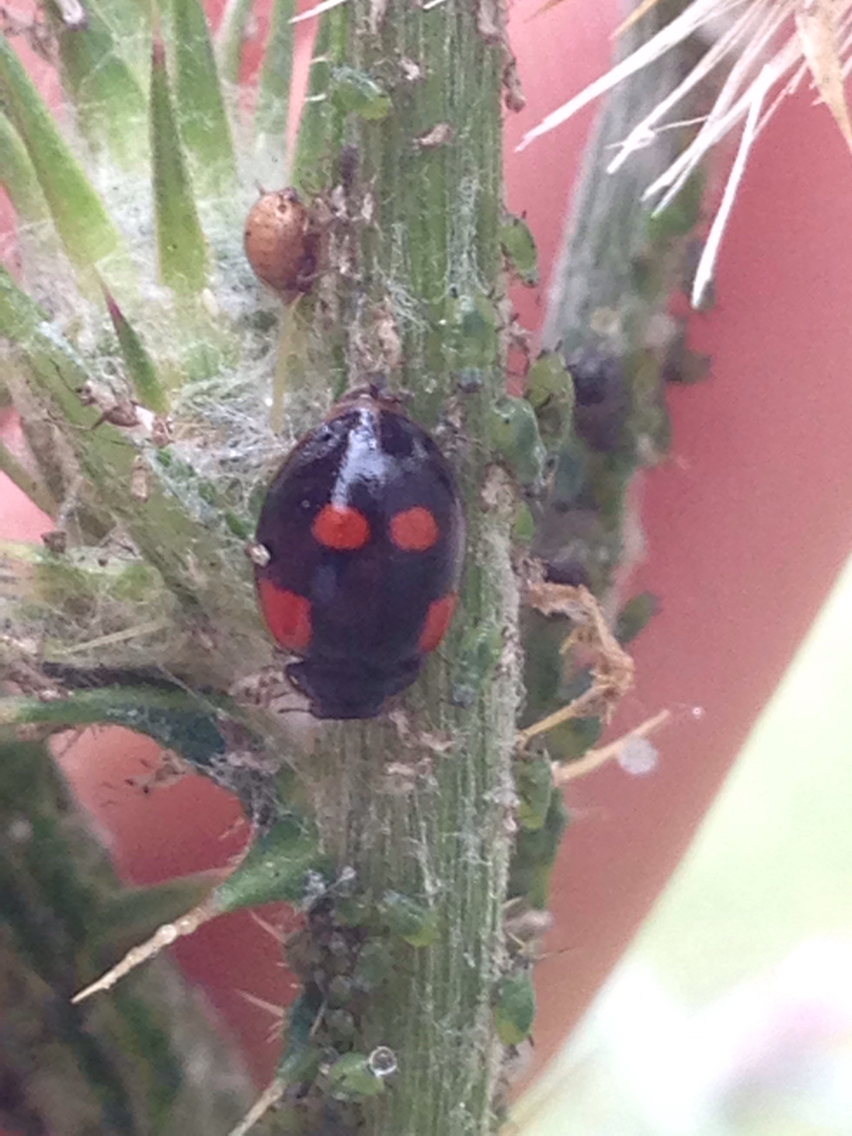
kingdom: Animalia
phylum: Arthropoda
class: Insecta
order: Coleoptera
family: Coccinellidae
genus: Adalia
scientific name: Adalia bipunctata
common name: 2-spot ladybird
